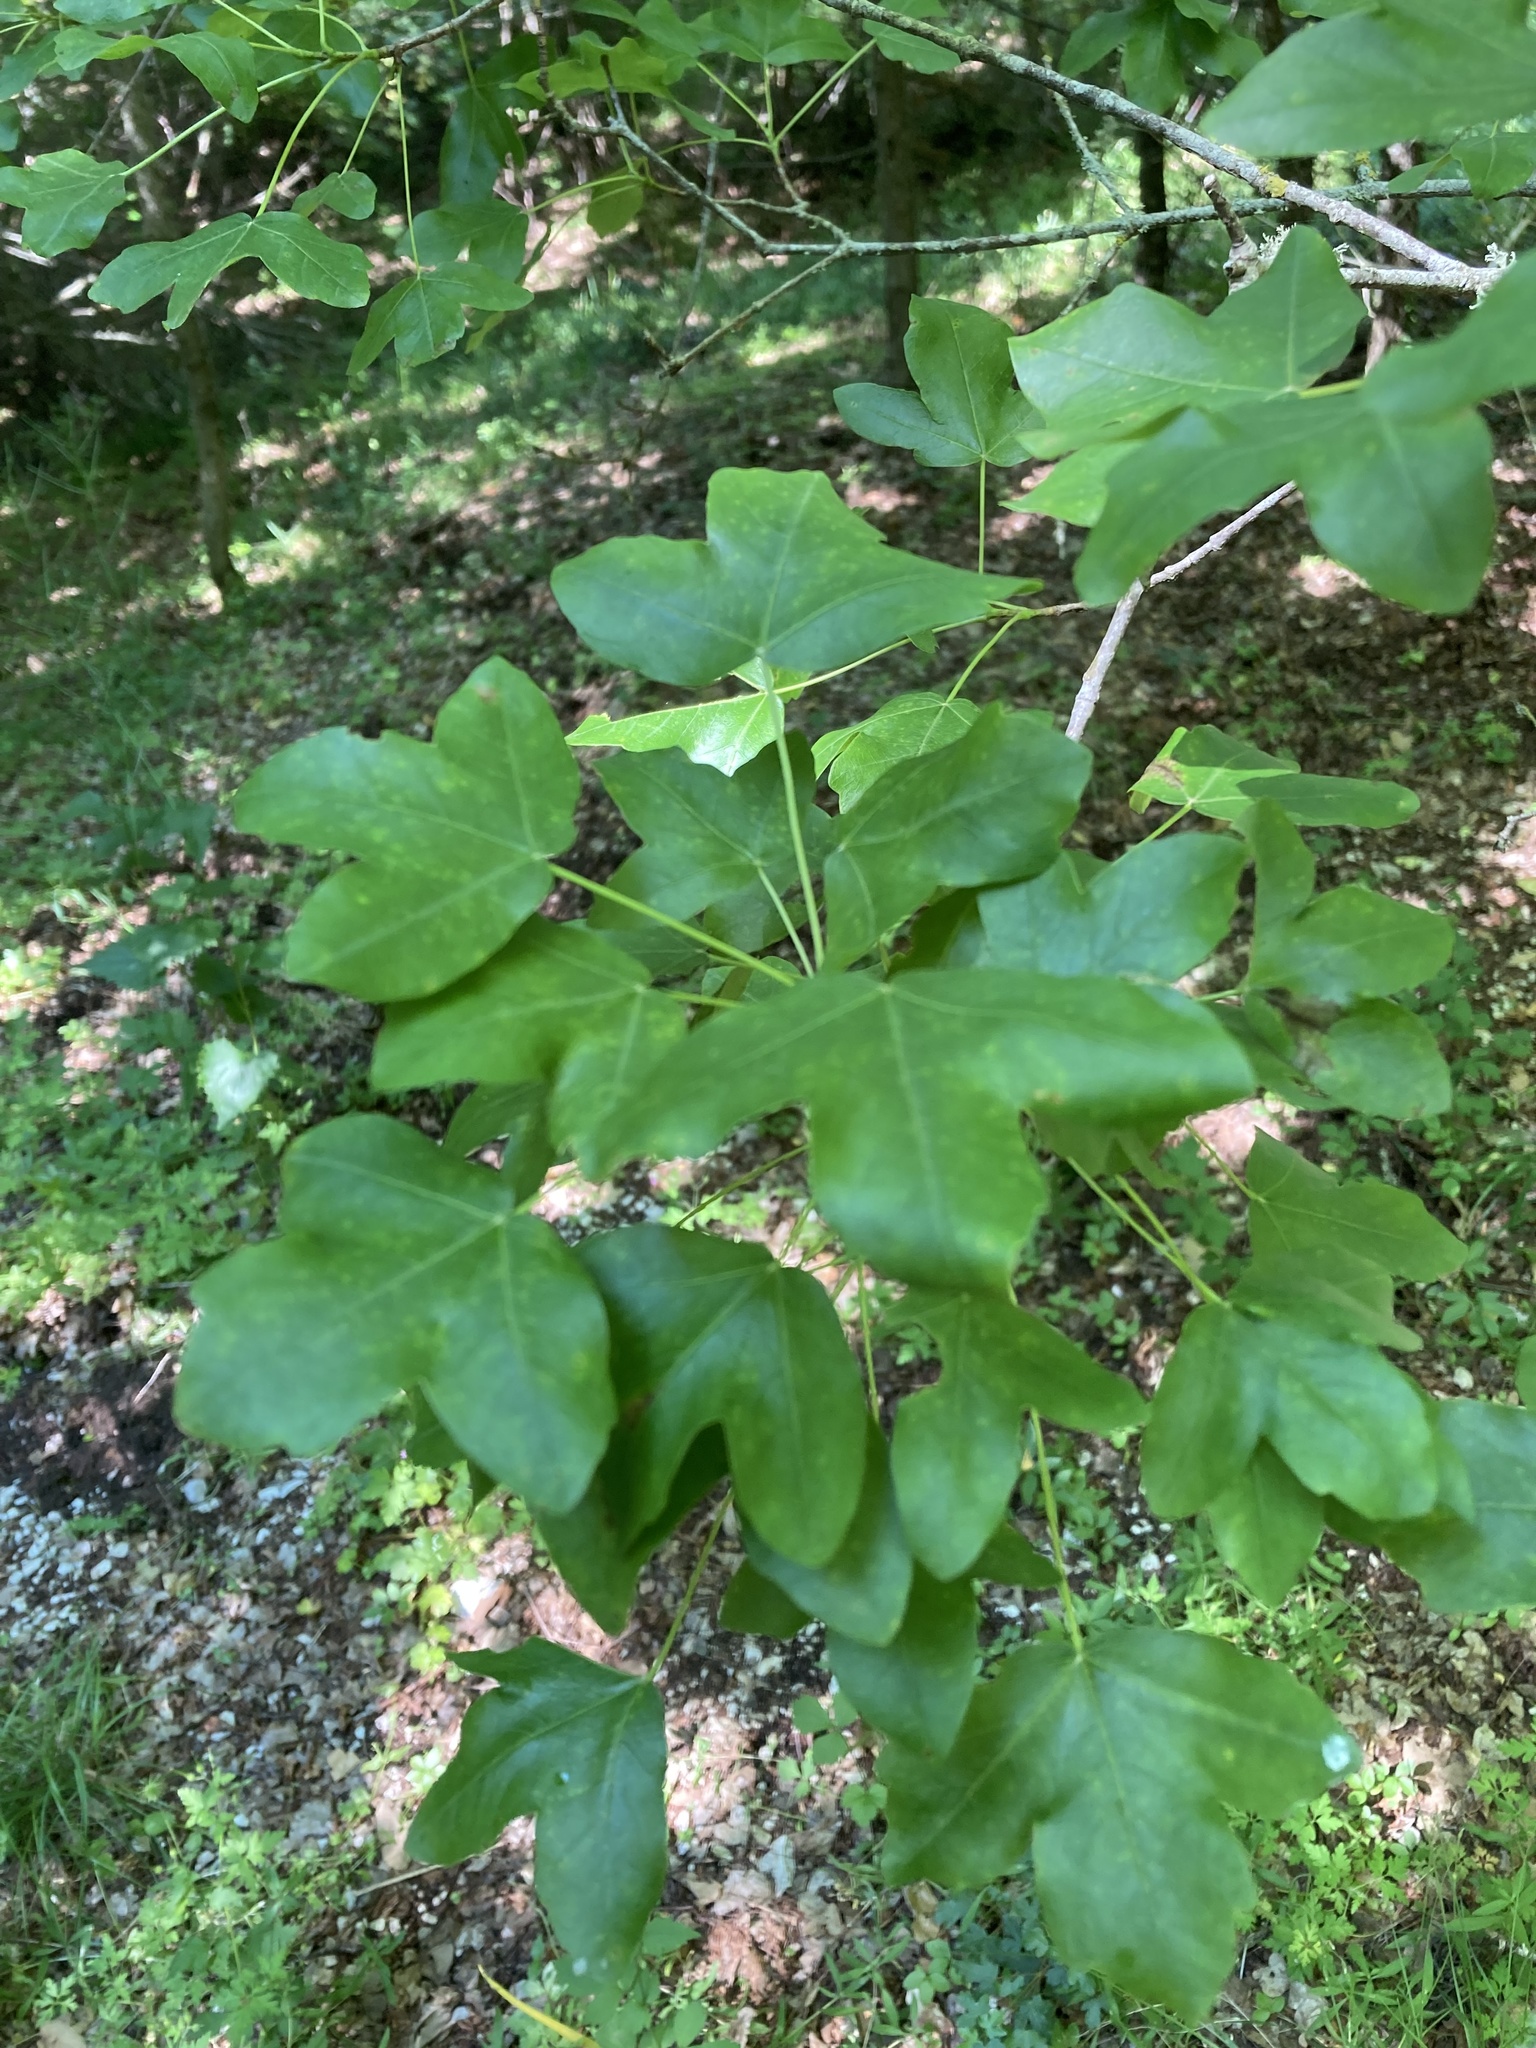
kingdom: Plantae
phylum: Tracheophyta
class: Magnoliopsida
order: Sapindales
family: Sapindaceae
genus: Acer
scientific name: Acer monspessulanum
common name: Montpellier maple
